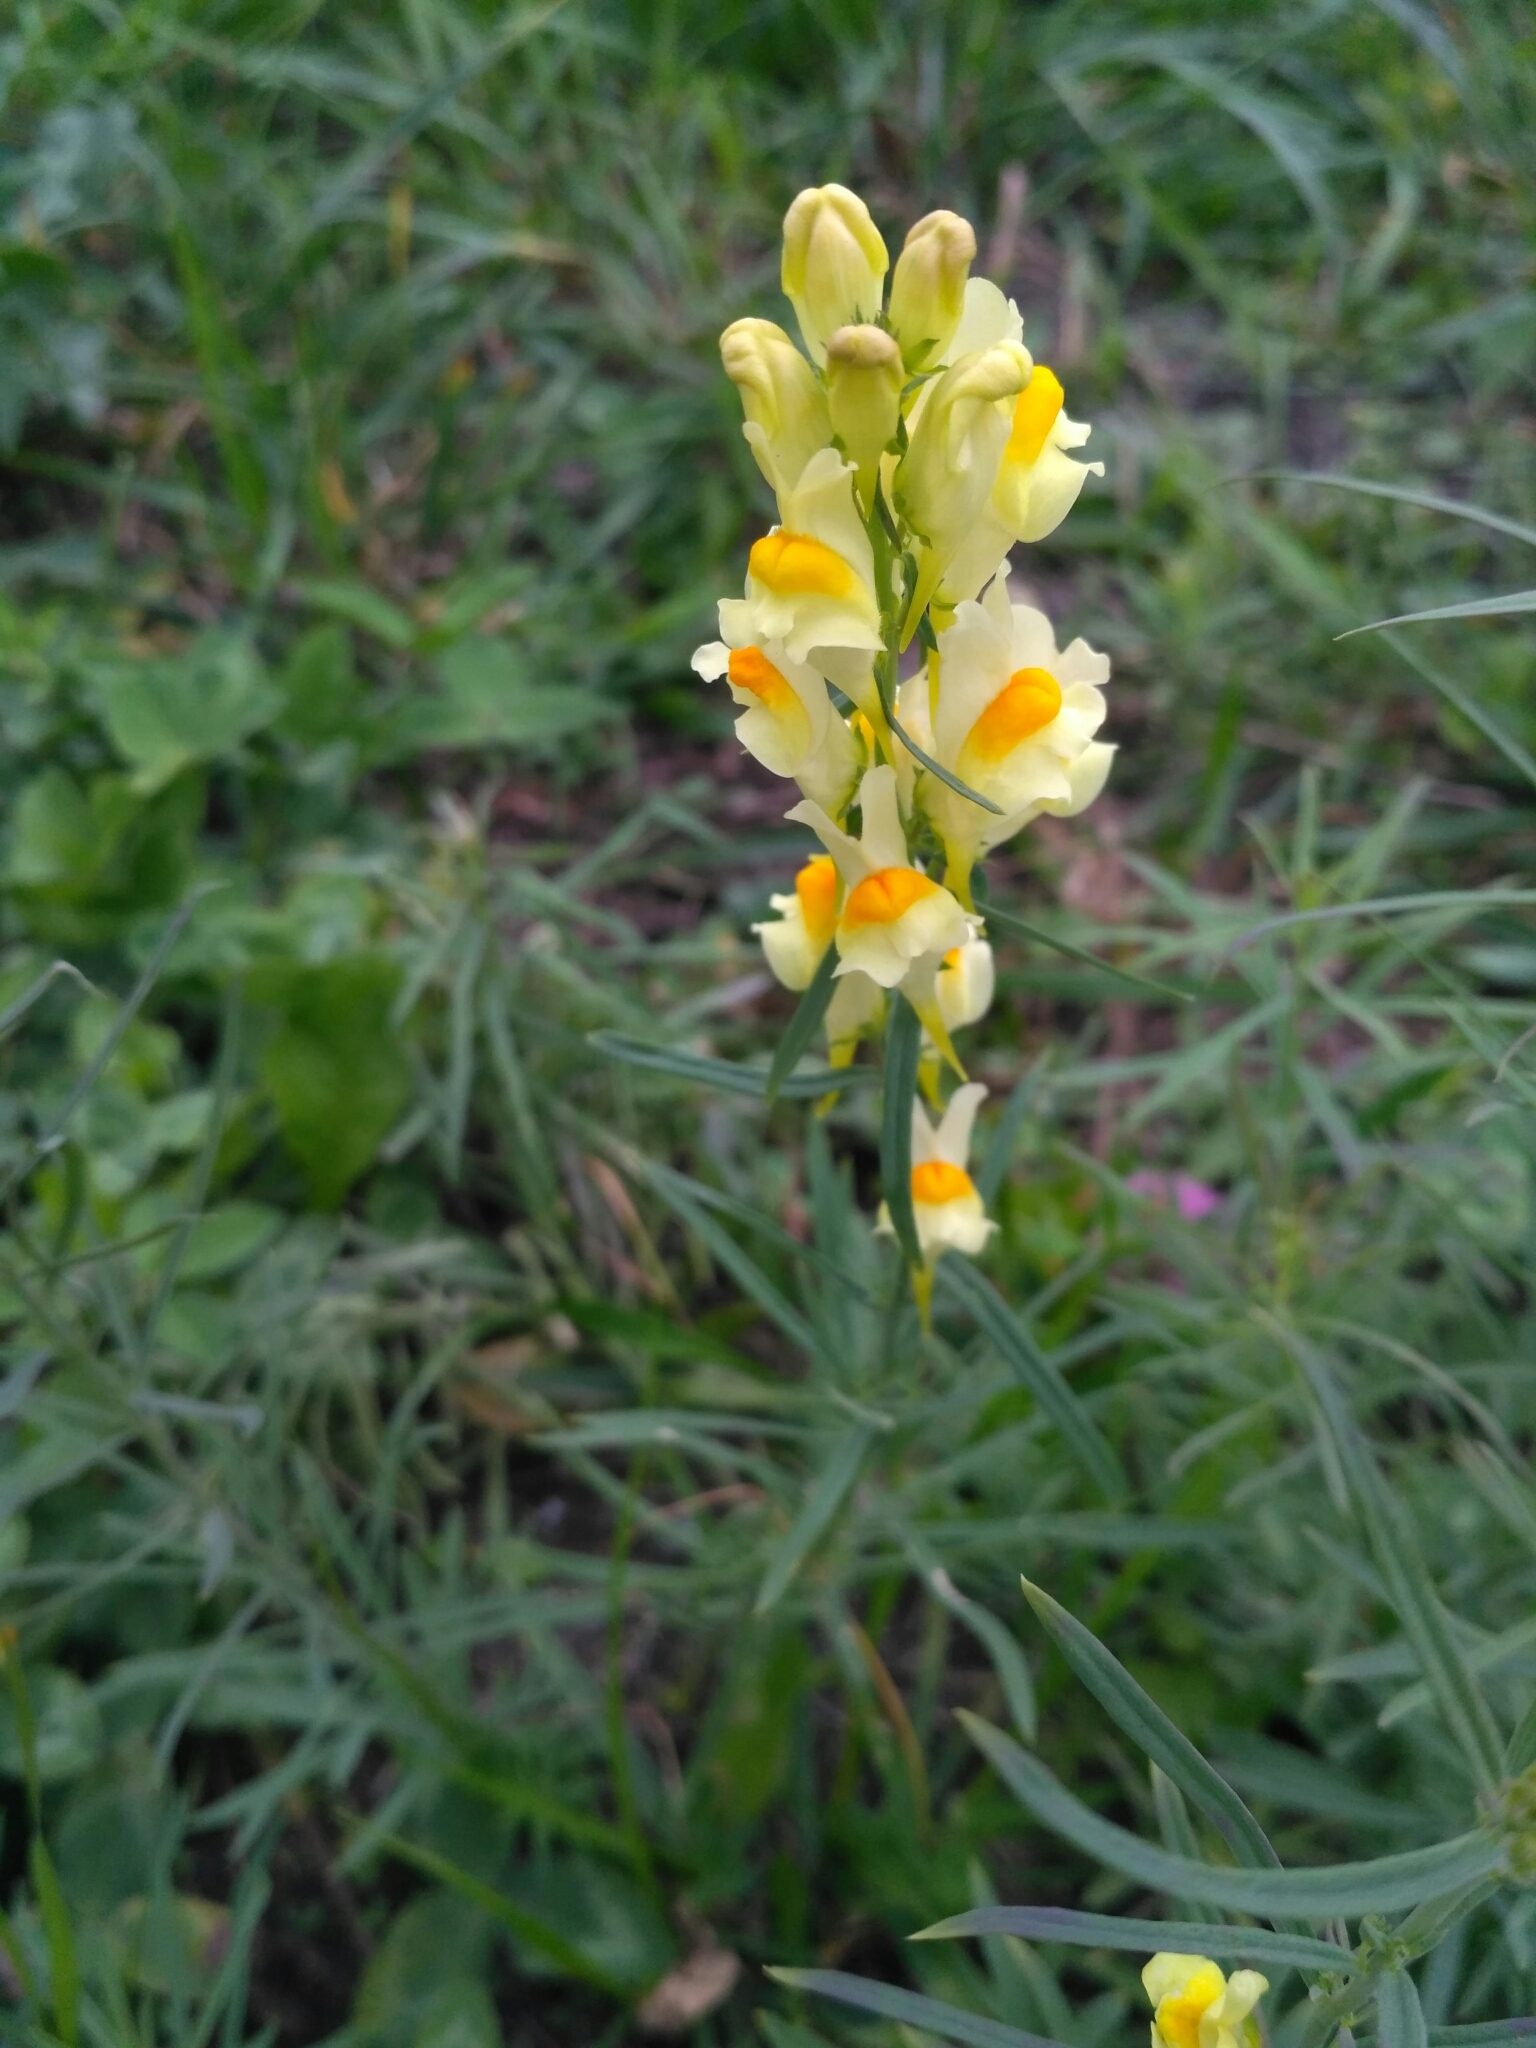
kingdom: Plantae
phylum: Tracheophyta
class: Magnoliopsida
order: Lamiales
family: Plantaginaceae
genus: Linaria
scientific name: Linaria vulgaris
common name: Butter and eggs
